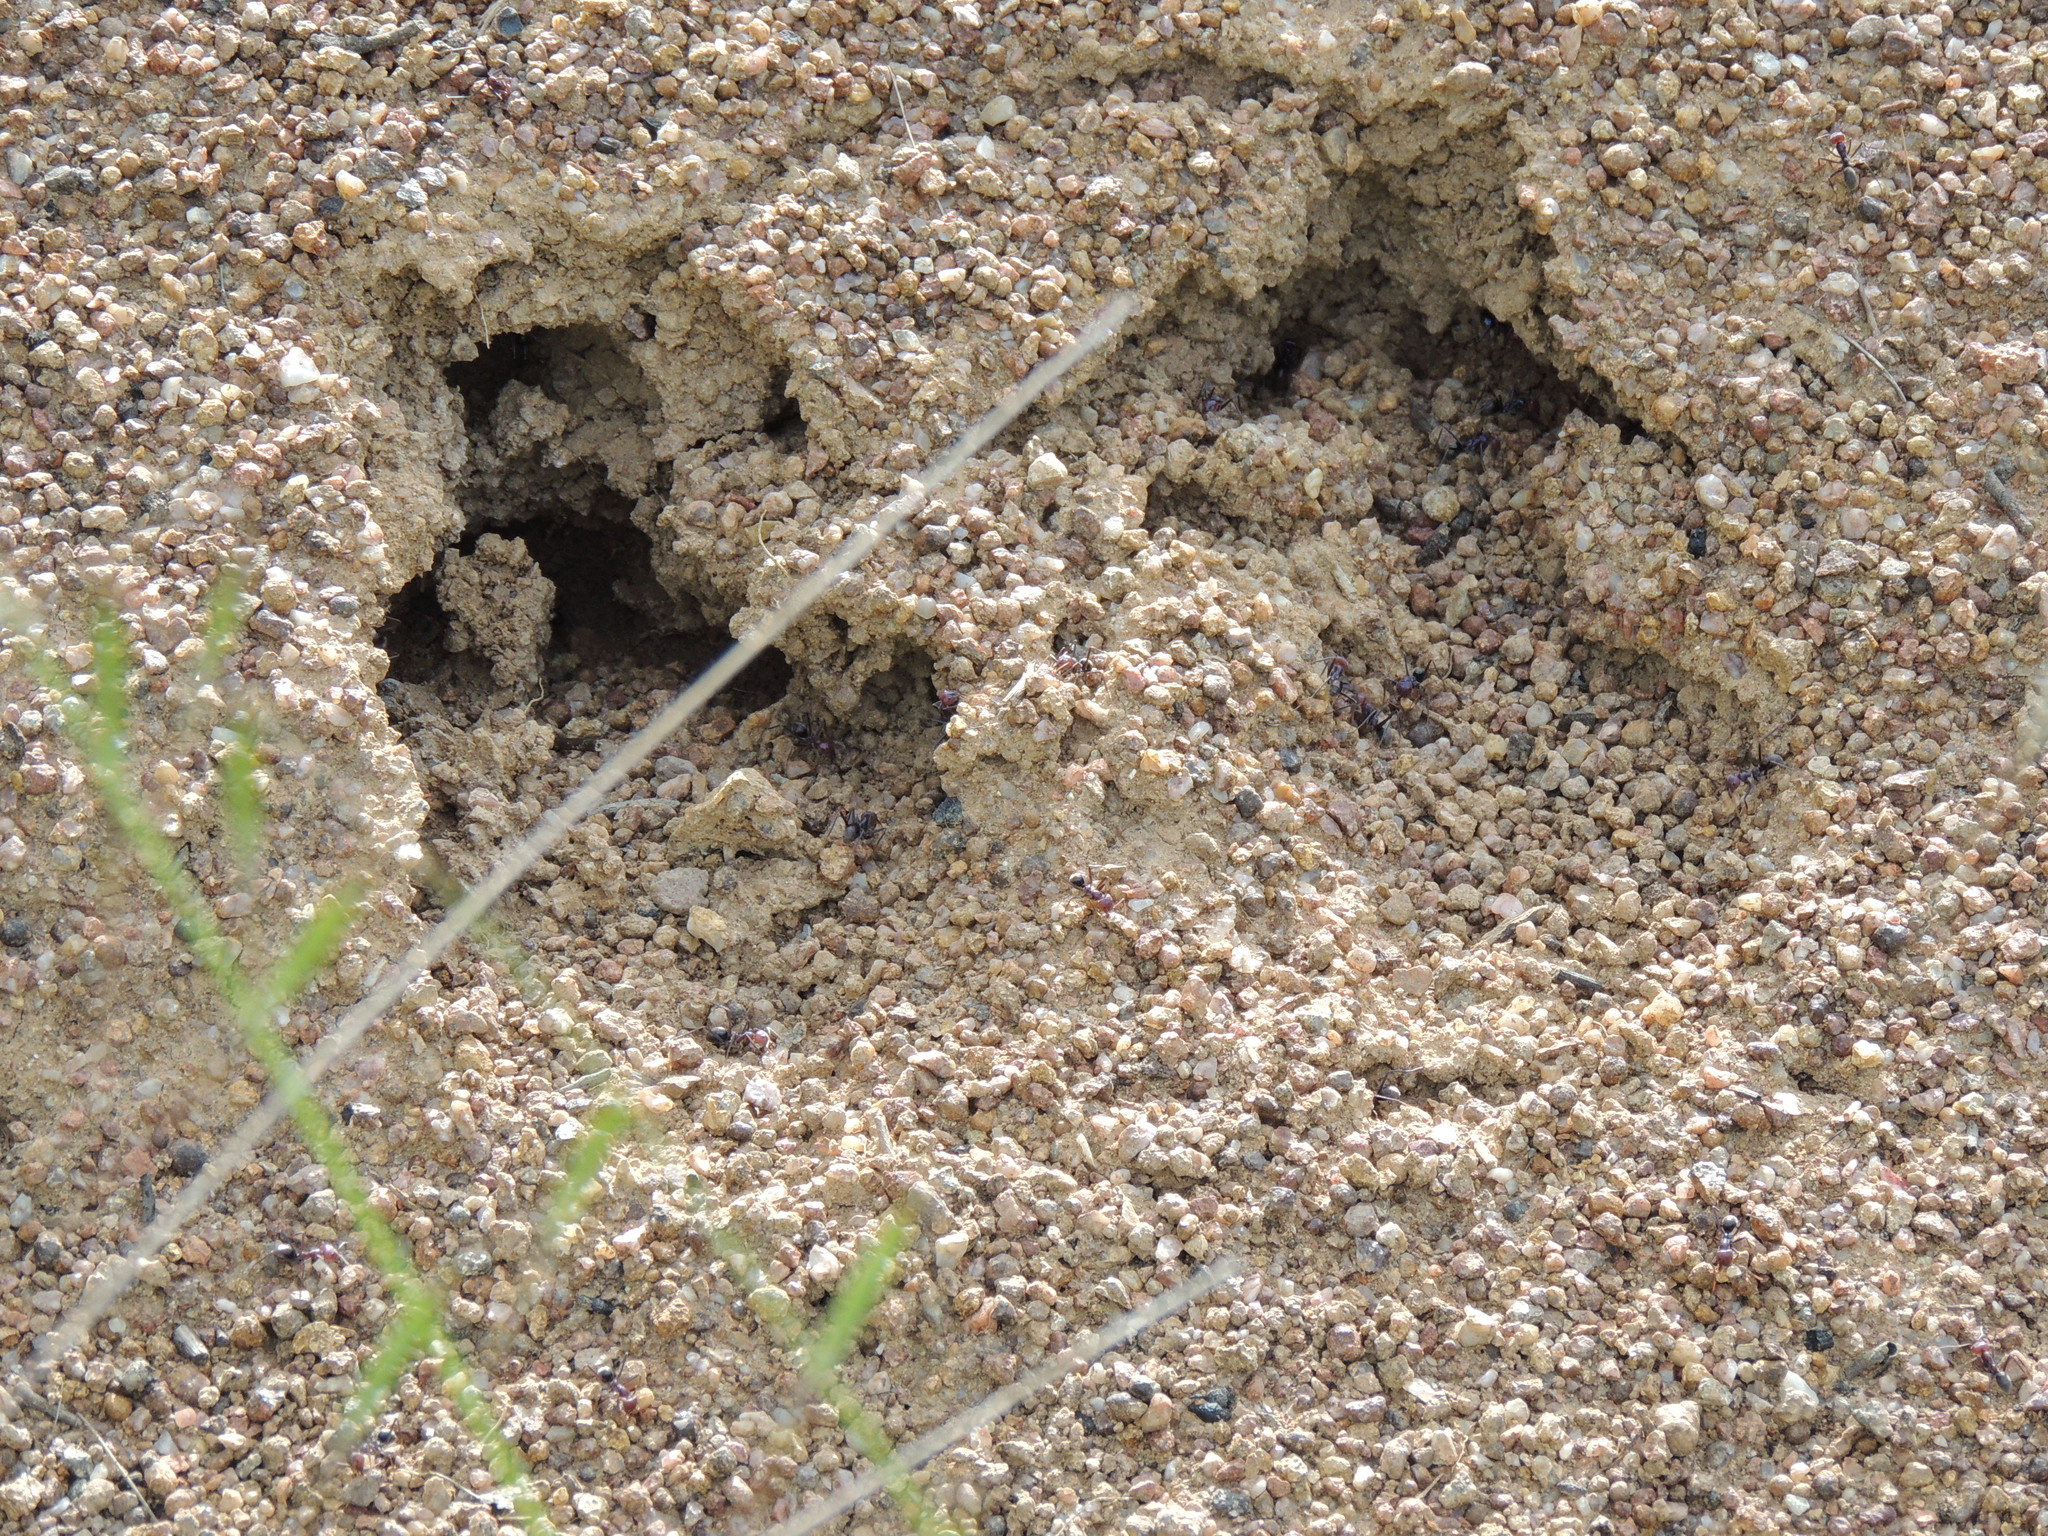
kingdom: Animalia
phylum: Arthropoda
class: Insecta
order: Hymenoptera
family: Formicidae
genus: Iridomyrmex
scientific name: Iridomyrmex purpureus
